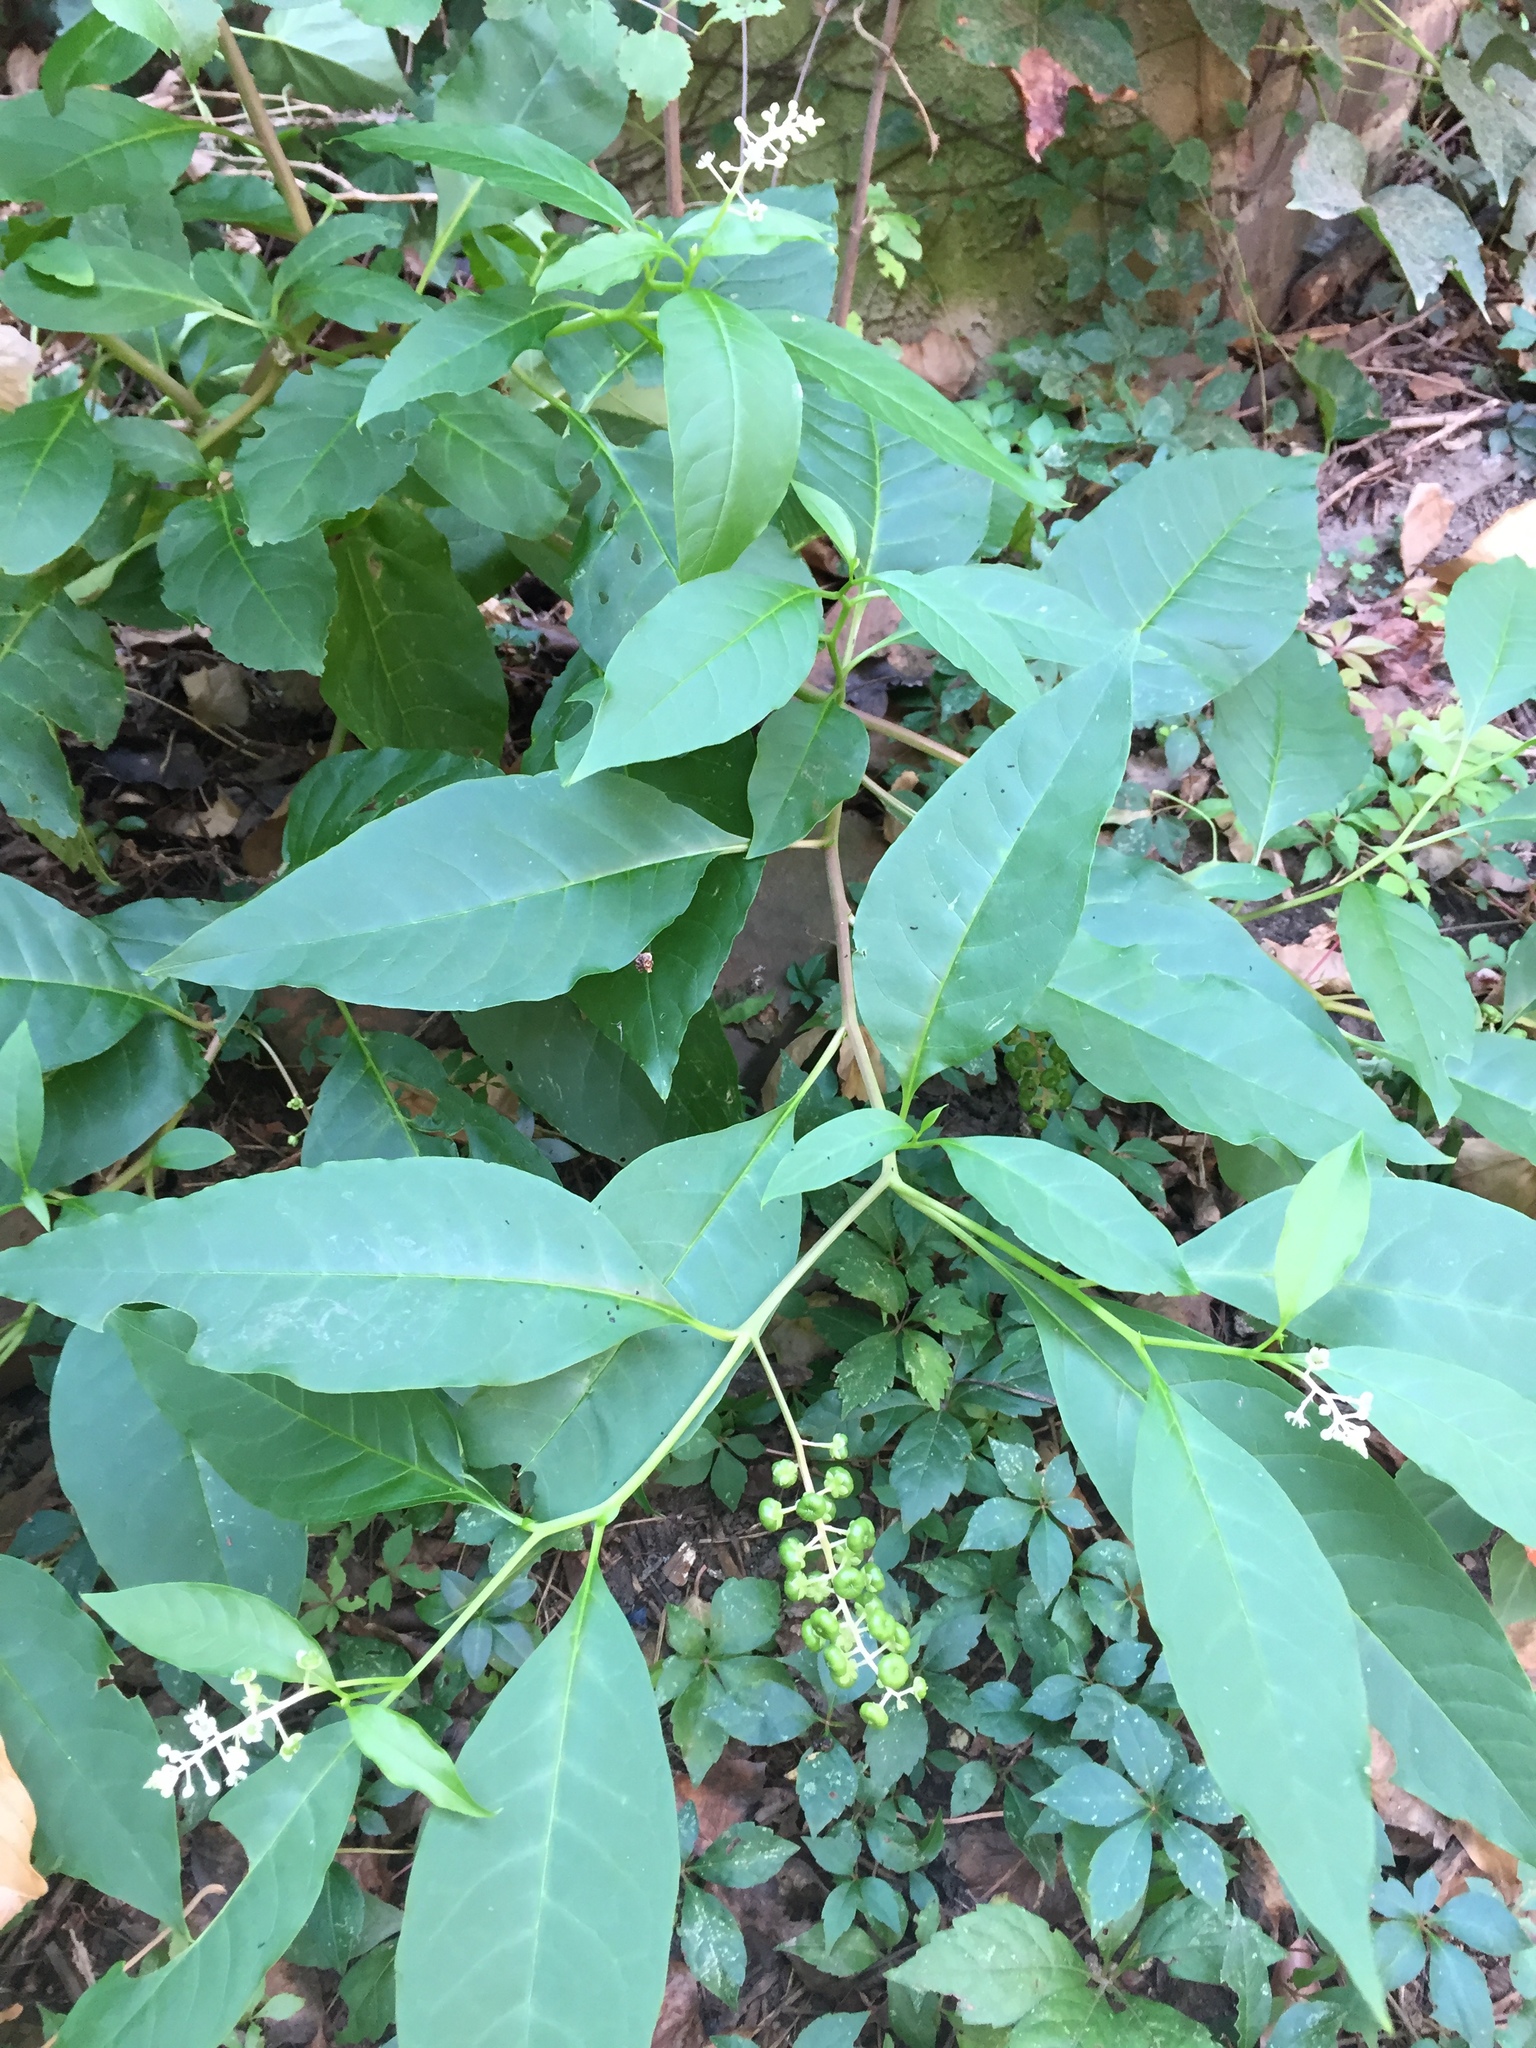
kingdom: Plantae
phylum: Tracheophyta
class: Magnoliopsida
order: Caryophyllales
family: Phytolaccaceae
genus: Phytolacca
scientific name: Phytolacca americana
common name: American pokeweed
